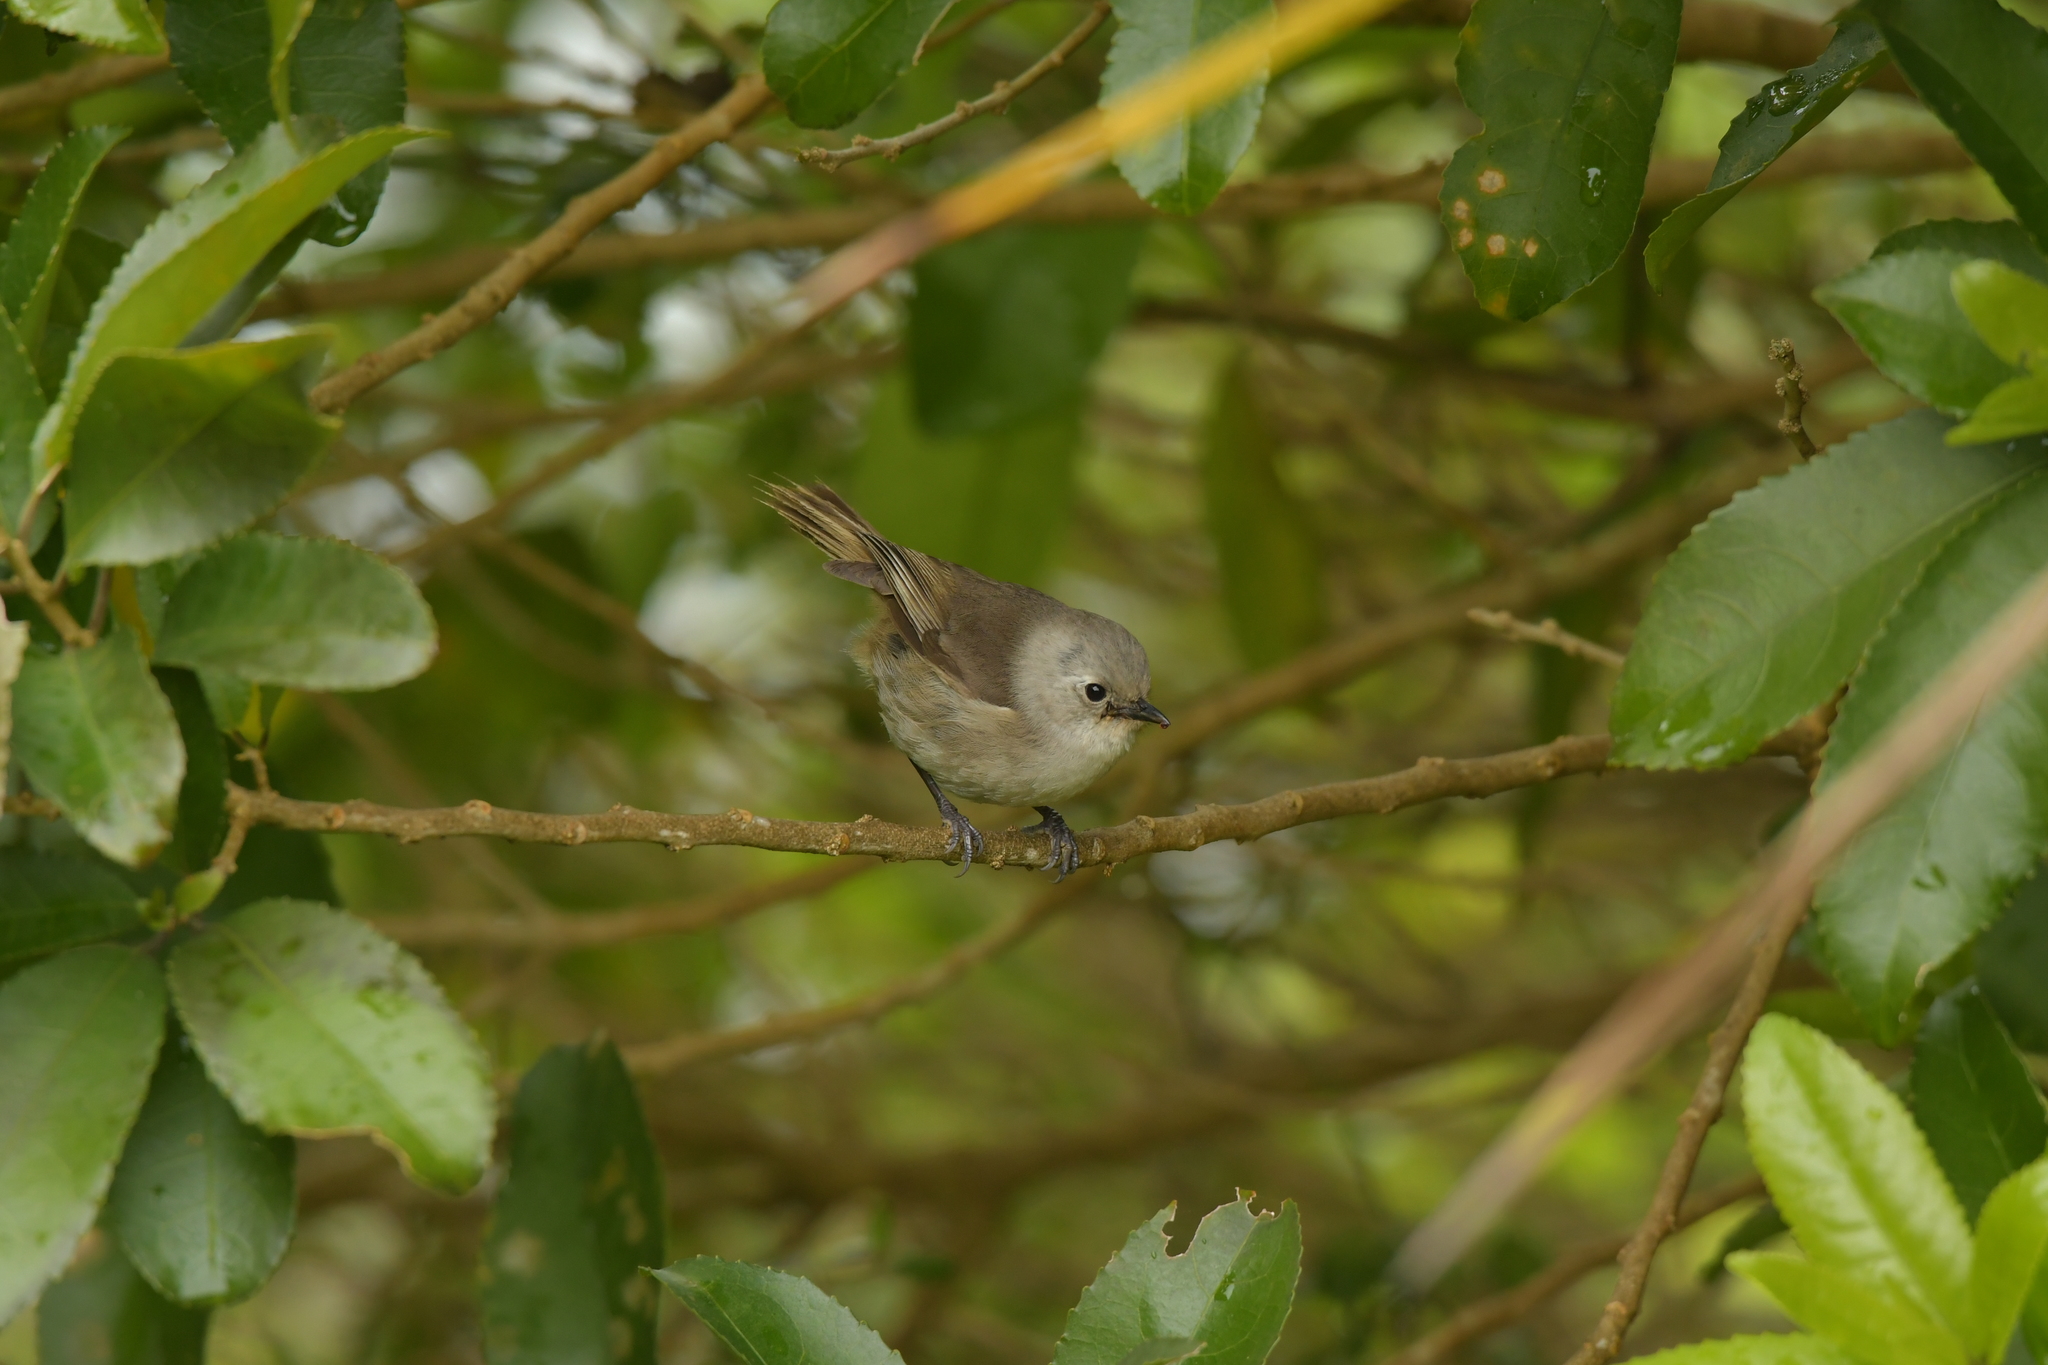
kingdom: Animalia
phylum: Chordata
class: Aves
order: Passeriformes
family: Acanthizidae
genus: Mohoua
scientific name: Mohoua albicilla
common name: Whitehead
